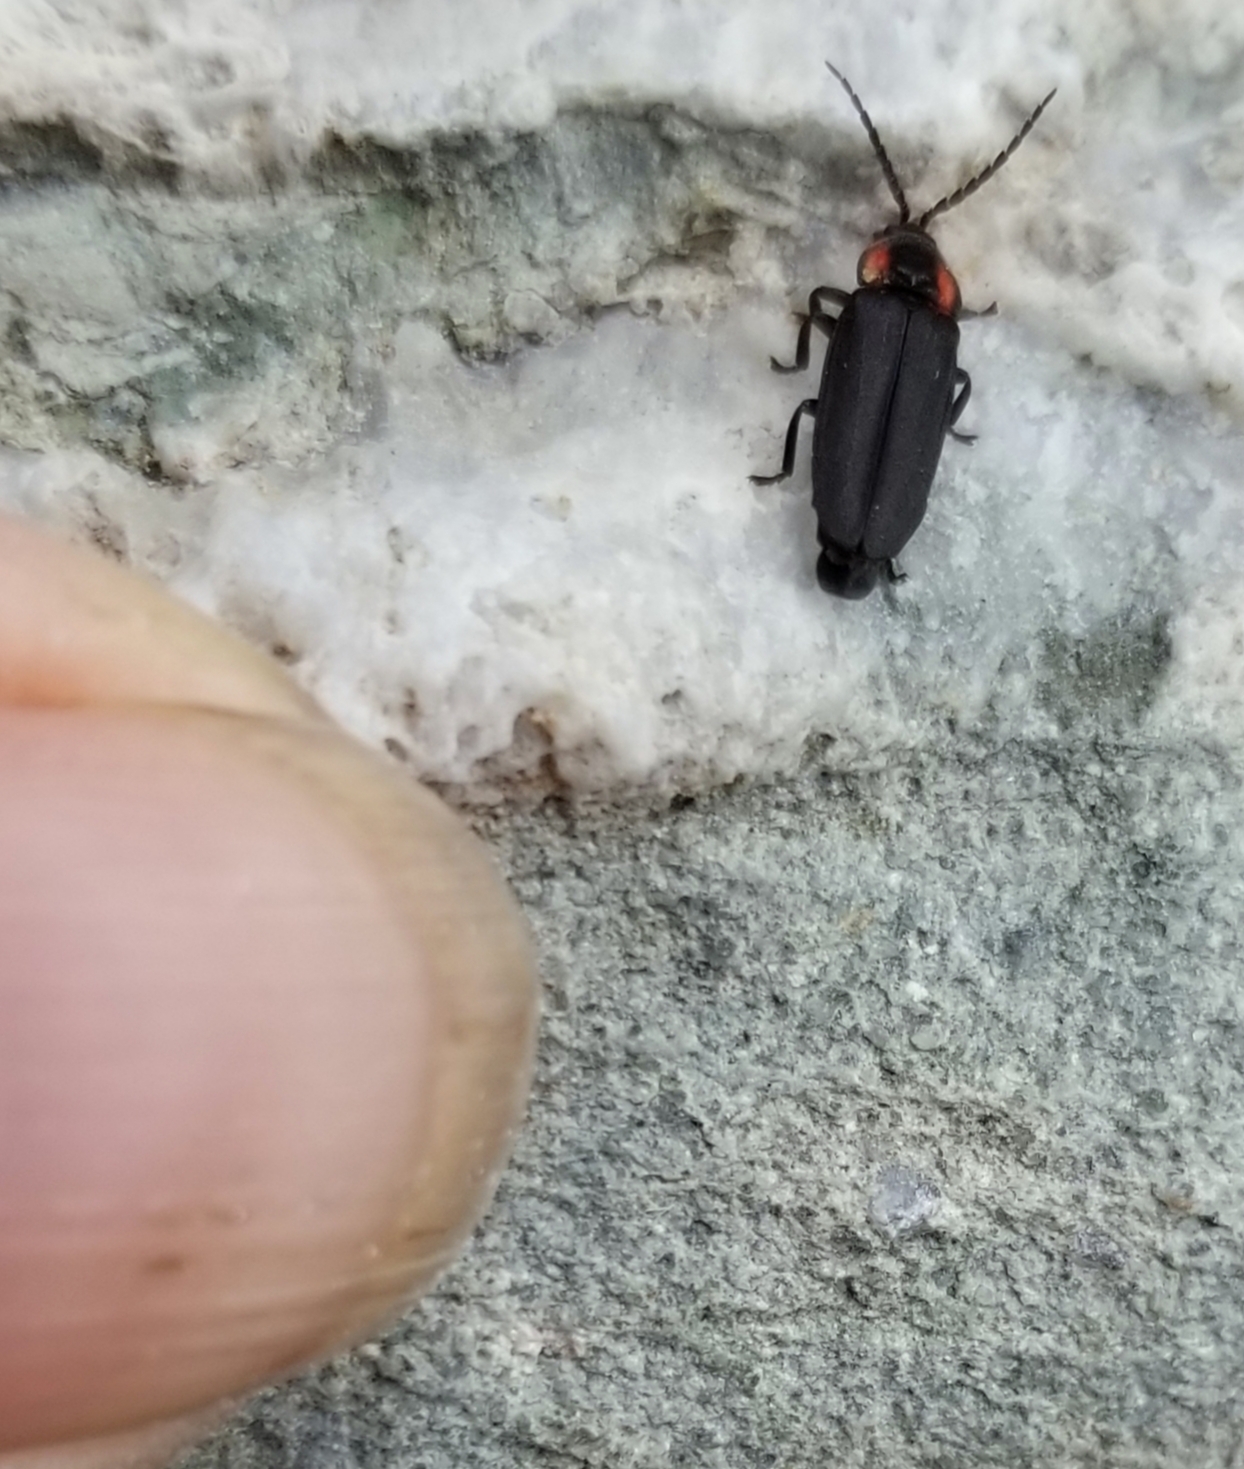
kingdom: Animalia
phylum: Arthropoda
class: Insecta
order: Coleoptera
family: Lampyridae
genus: Pyropyga
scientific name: Pyropyga nigricans
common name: Dark firefly
